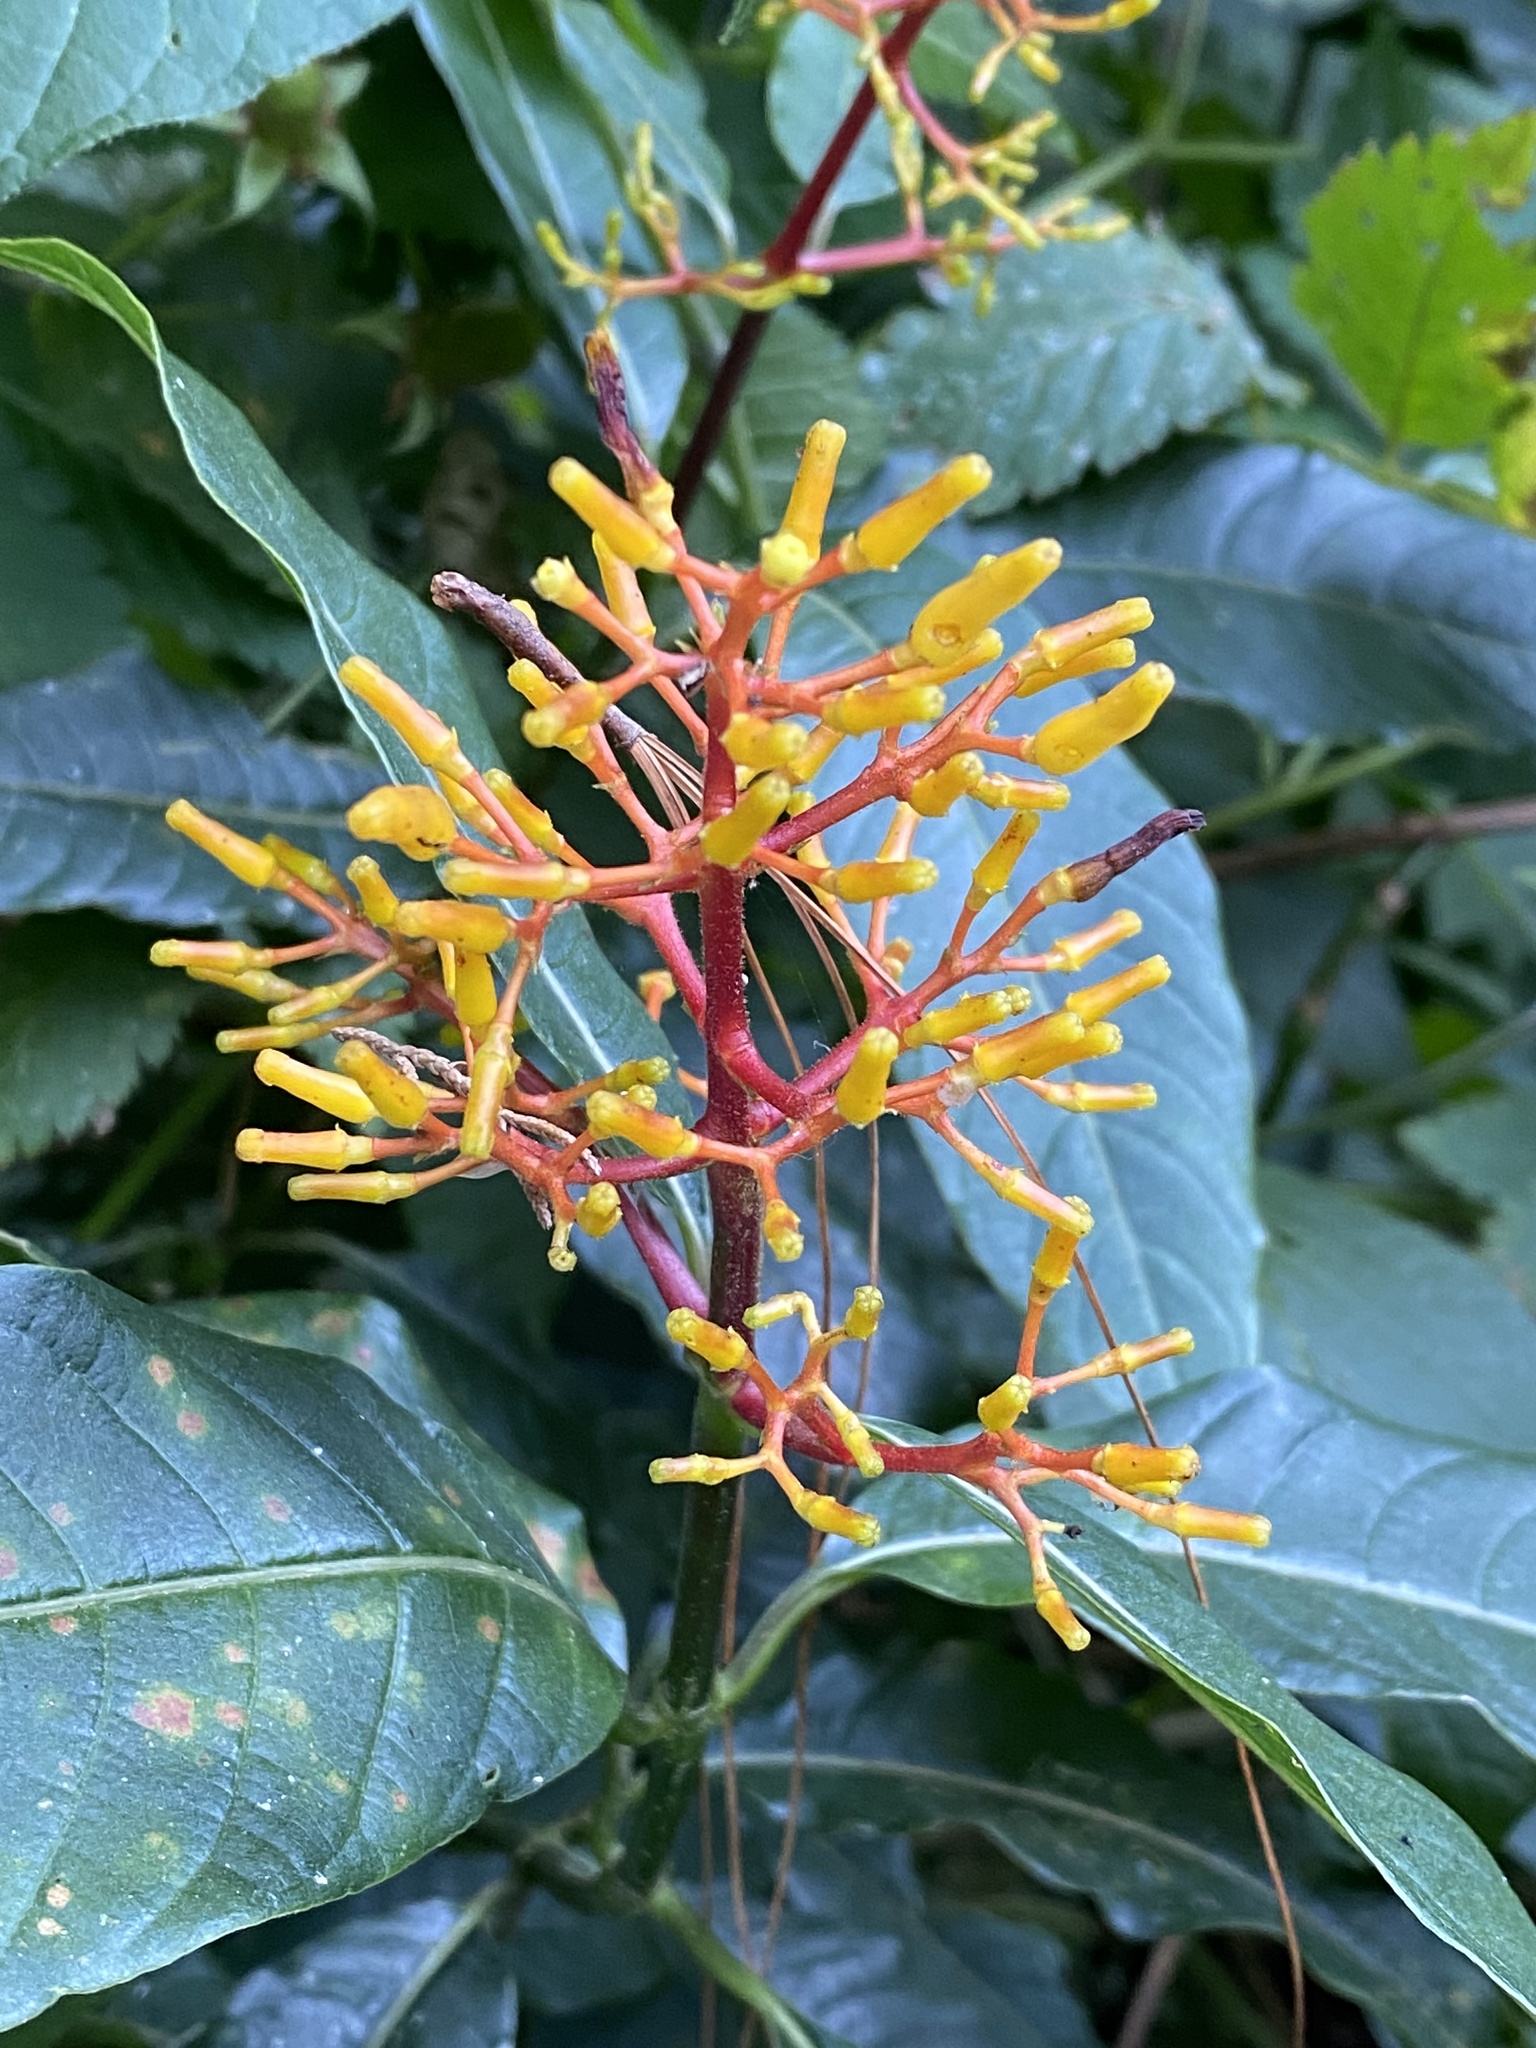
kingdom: Plantae
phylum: Tracheophyta
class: Magnoliopsida
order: Gentianales
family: Rubiaceae
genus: Palicourea
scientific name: Palicourea padifolia
